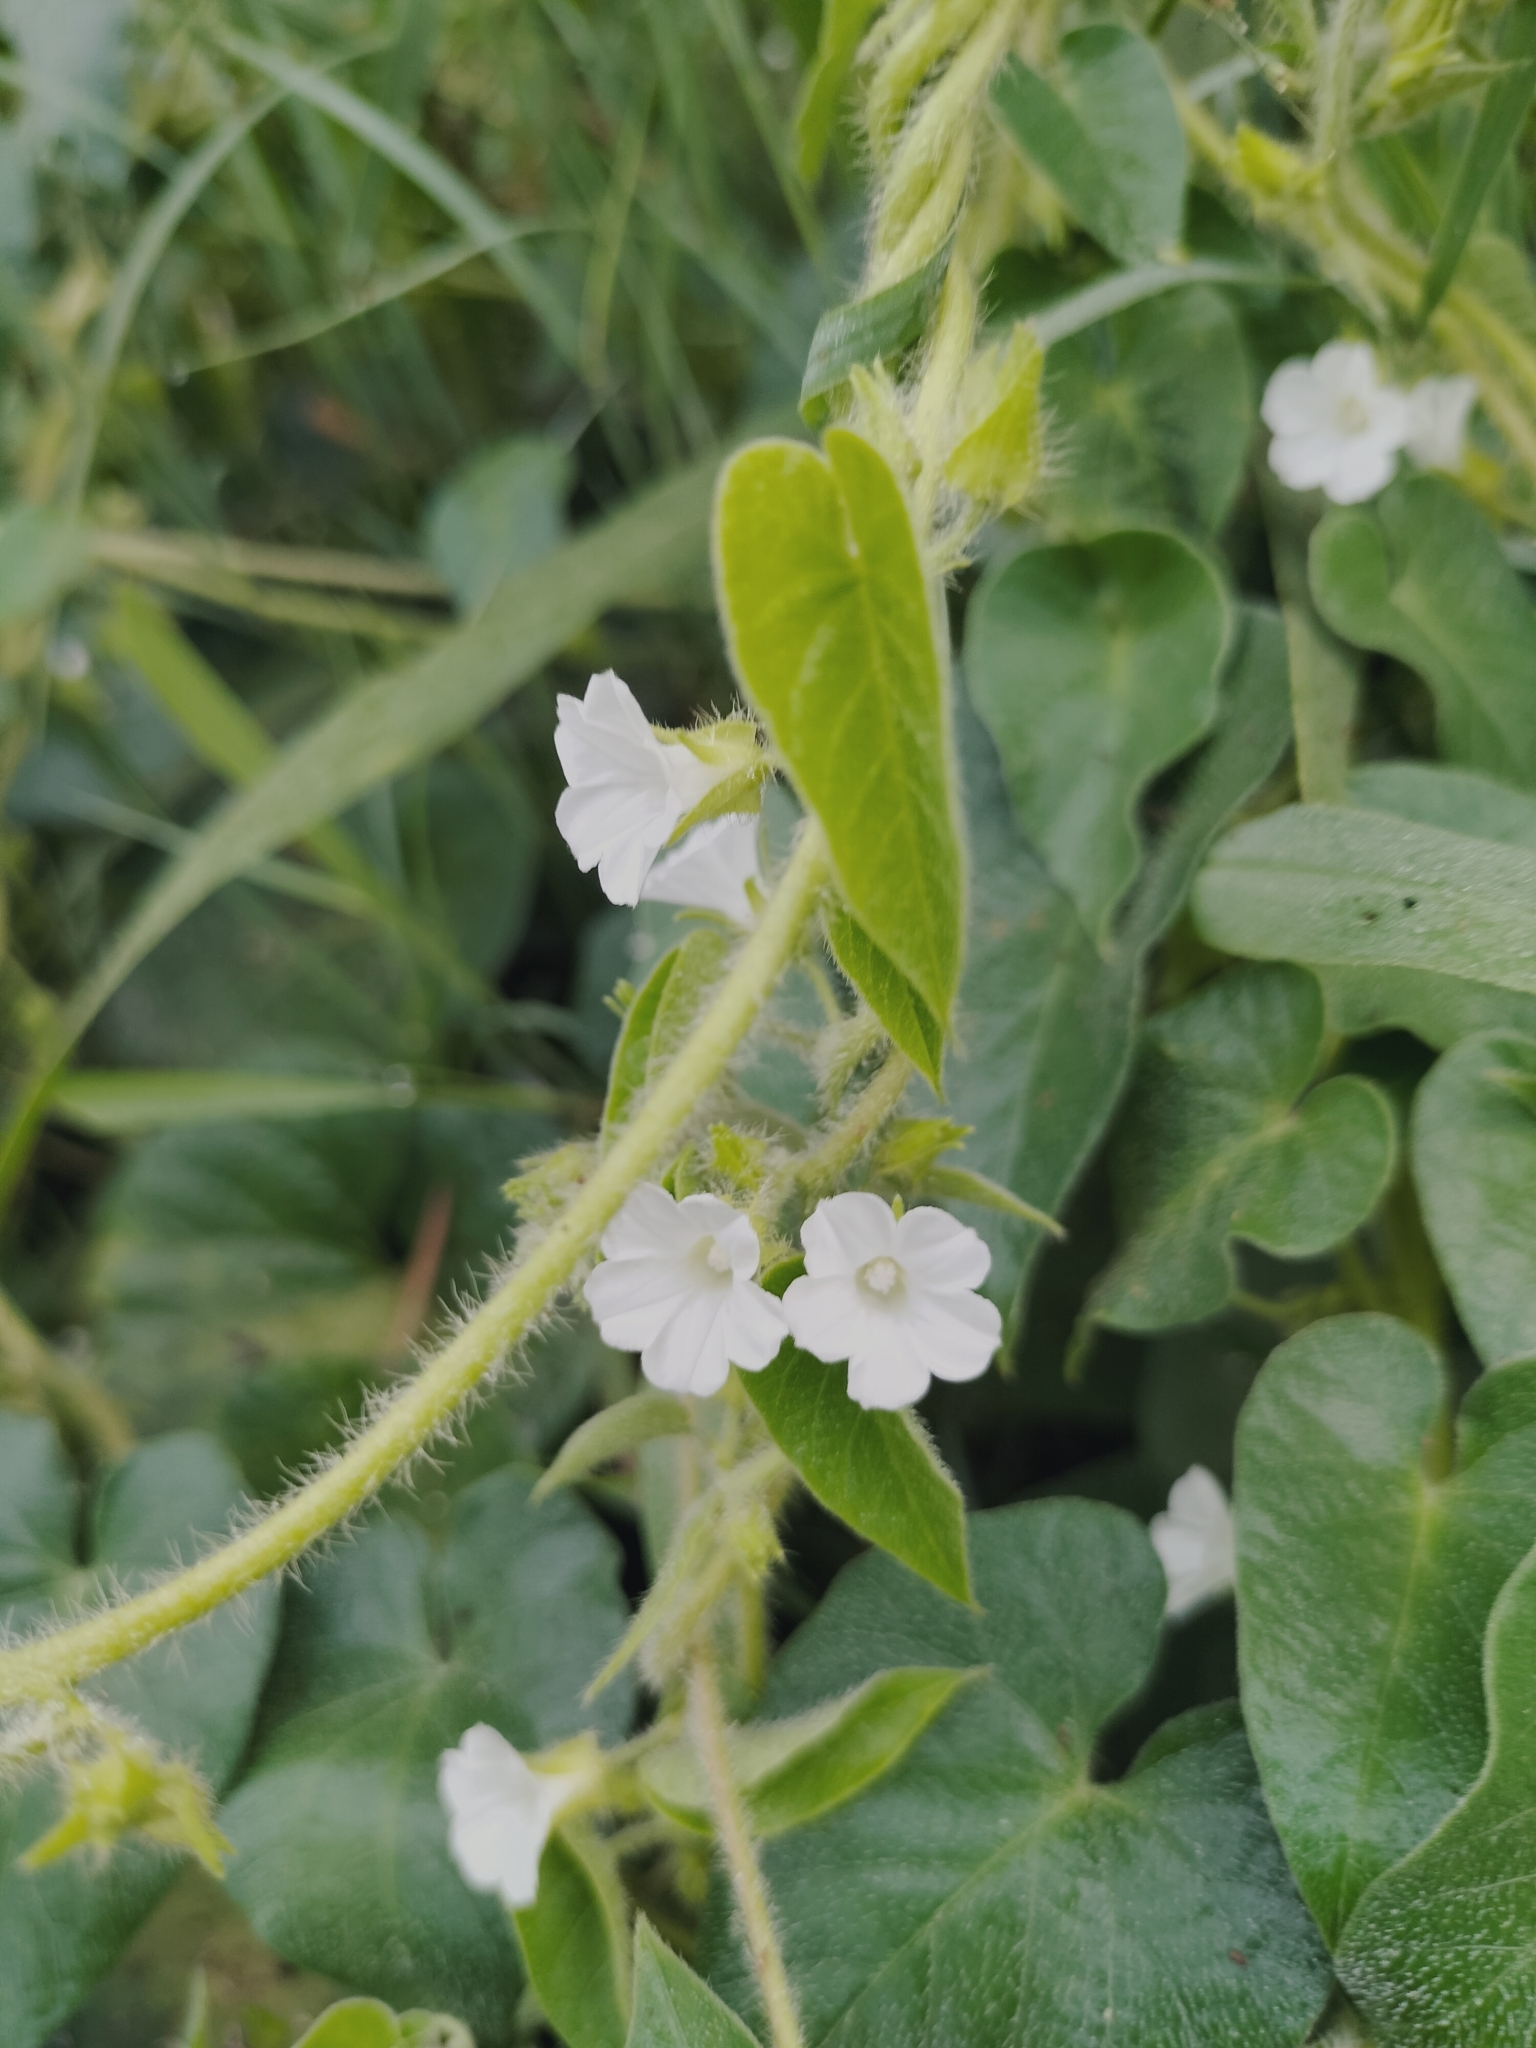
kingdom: Plantae
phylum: Tracheophyta
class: Magnoliopsida
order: Solanales
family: Convolvulaceae
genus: Ipomoea
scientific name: Ipomoea biflora
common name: Bellvine
